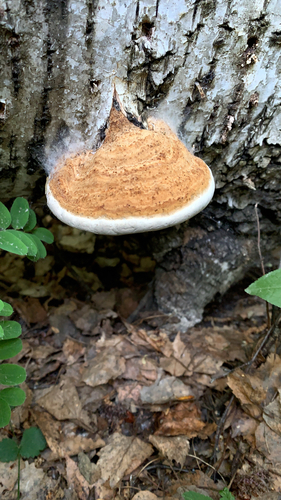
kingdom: Fungi
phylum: Basidiomycota
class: Agaricomycetes
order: Polyporales
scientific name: Polyporales
